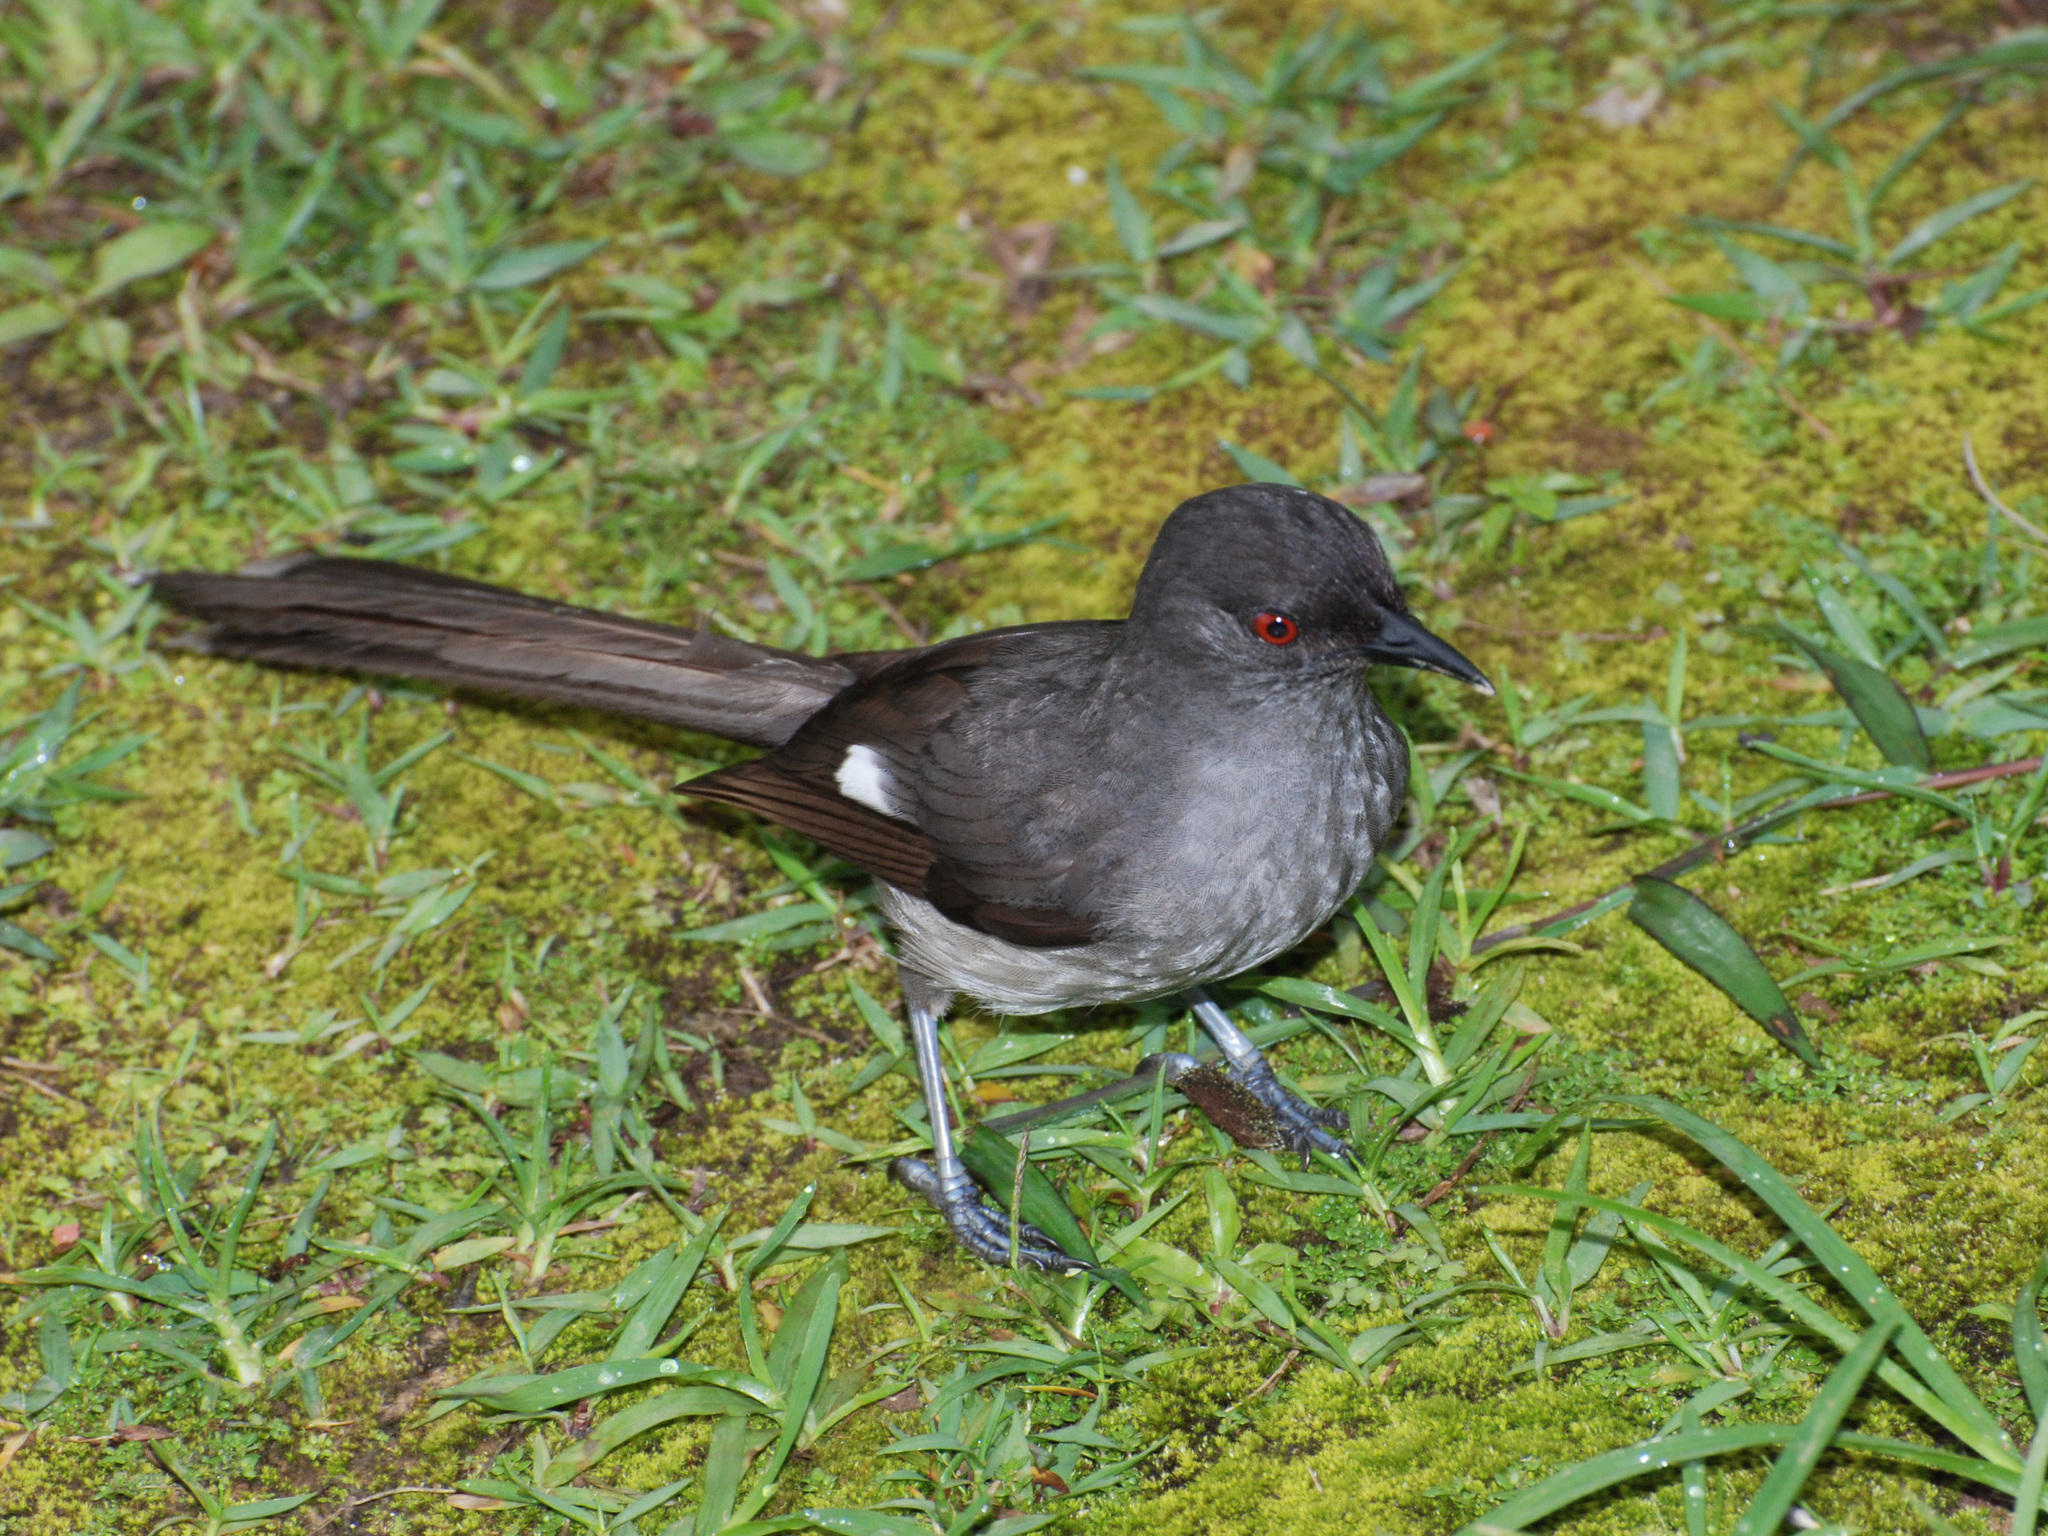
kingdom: Animalia
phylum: Chordata
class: Aves
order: Passeriformes
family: Leiothrichidae
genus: Heterophasia
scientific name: Heterophasia picaoides
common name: Long-tailed sibia
